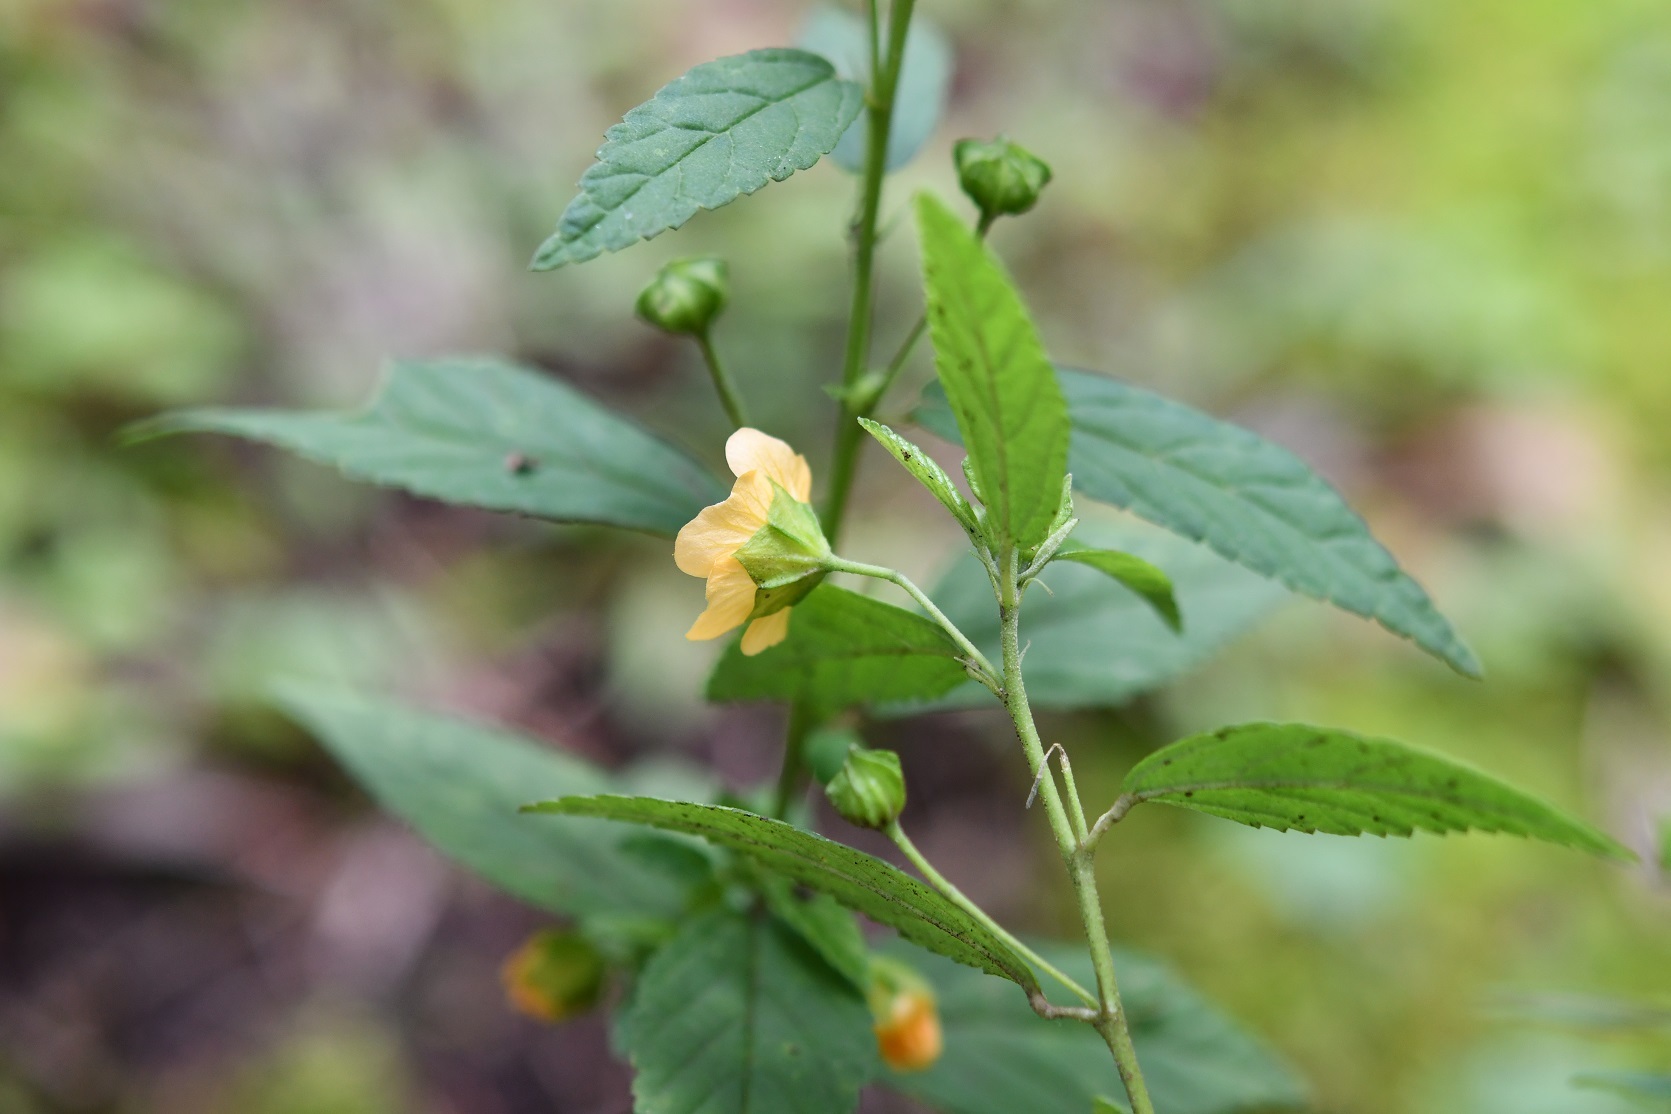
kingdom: Plantae
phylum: Tracheophyta
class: Magnoliopsida
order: Malvales
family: Malvaceae
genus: Sida
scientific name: Sida acuta
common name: Common wireweed
